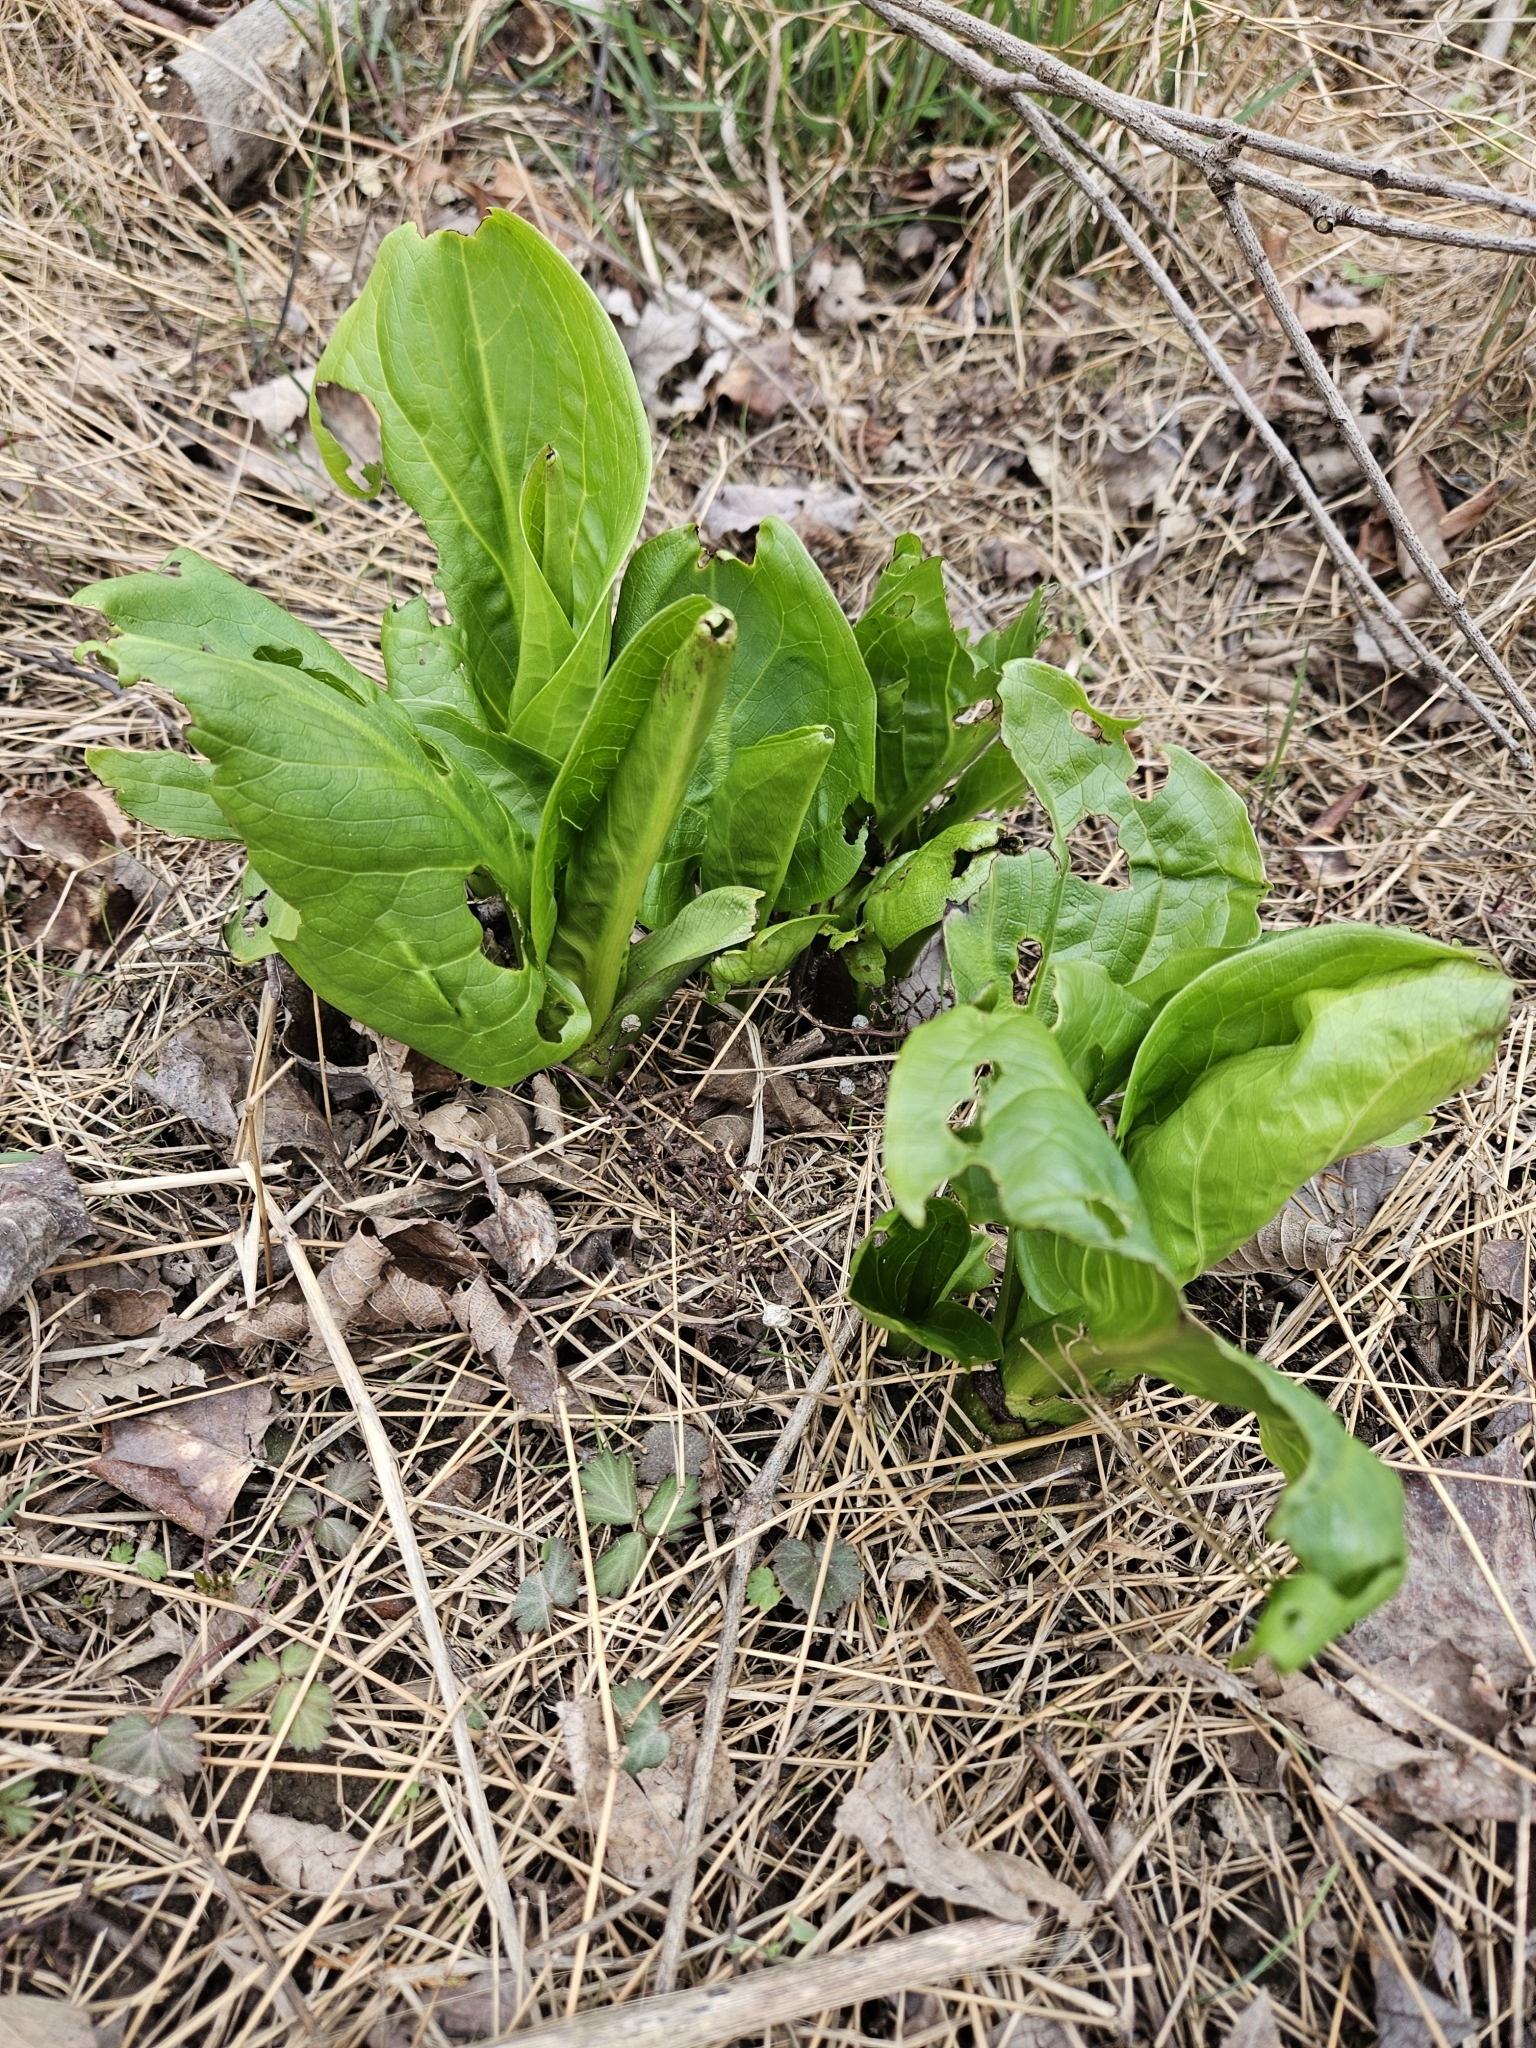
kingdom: Plantae
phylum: Tracheophyta
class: Liliopsida
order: Alismatales
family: Araceae
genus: Symplocarpus
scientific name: Symplocarpus foetidus
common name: Eastern skunk cabbage
